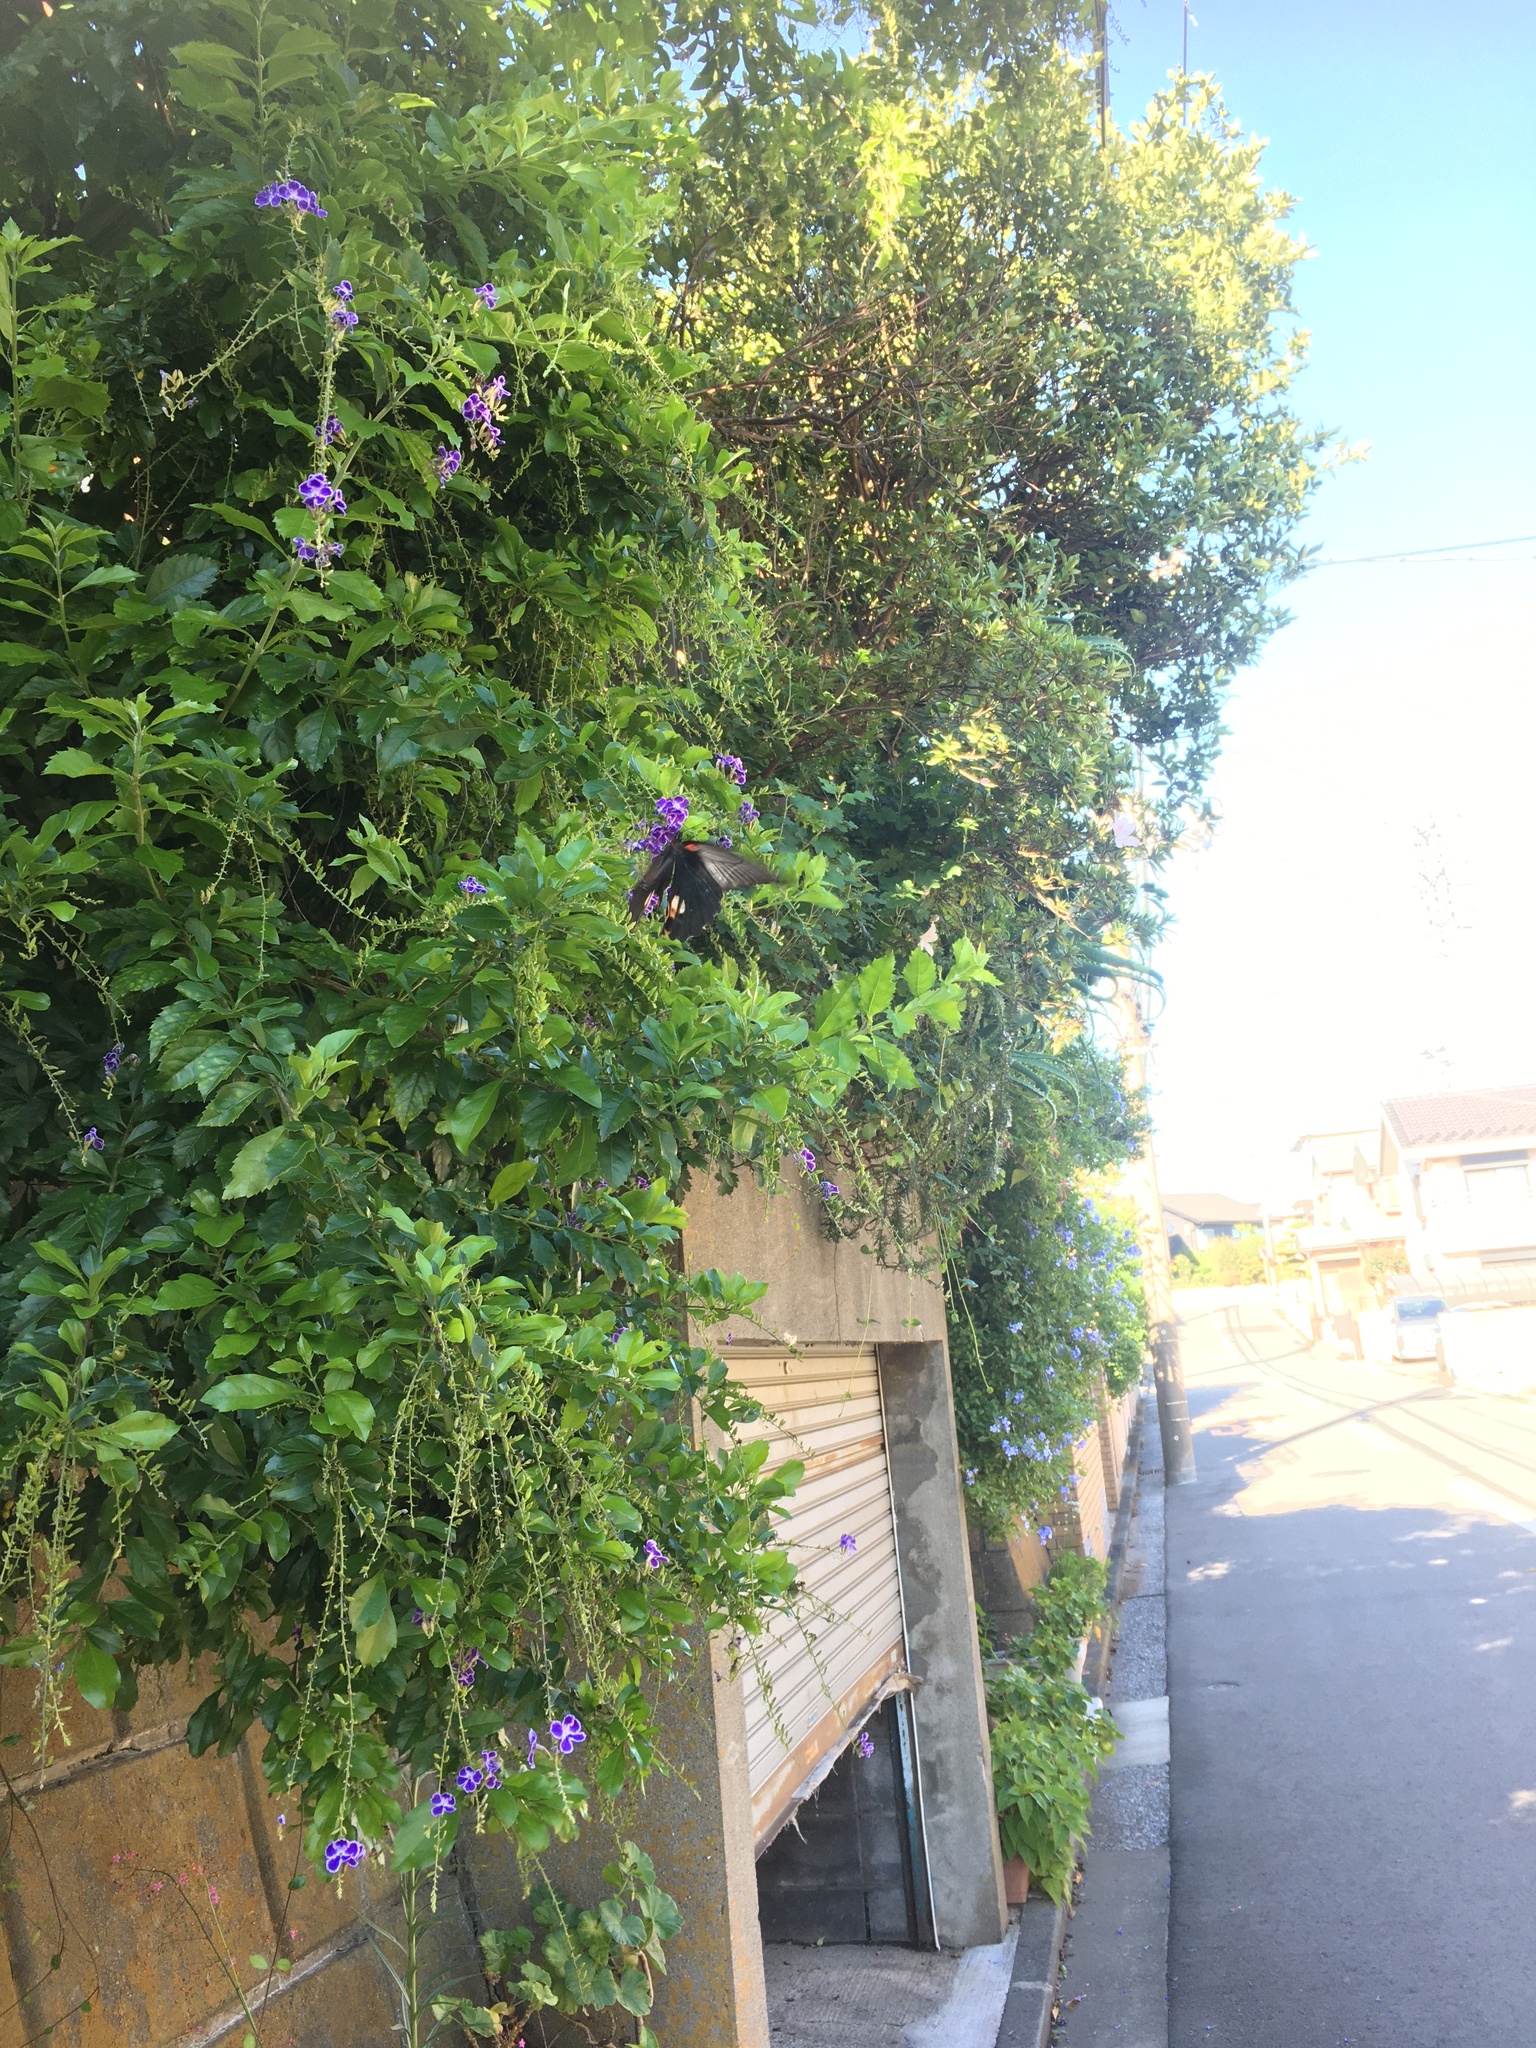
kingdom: Animalia
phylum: Arthropoda
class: Insecta
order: Lepidoptera
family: Papilionidae
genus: Papilio
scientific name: Papilio memnon
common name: Great mormon
